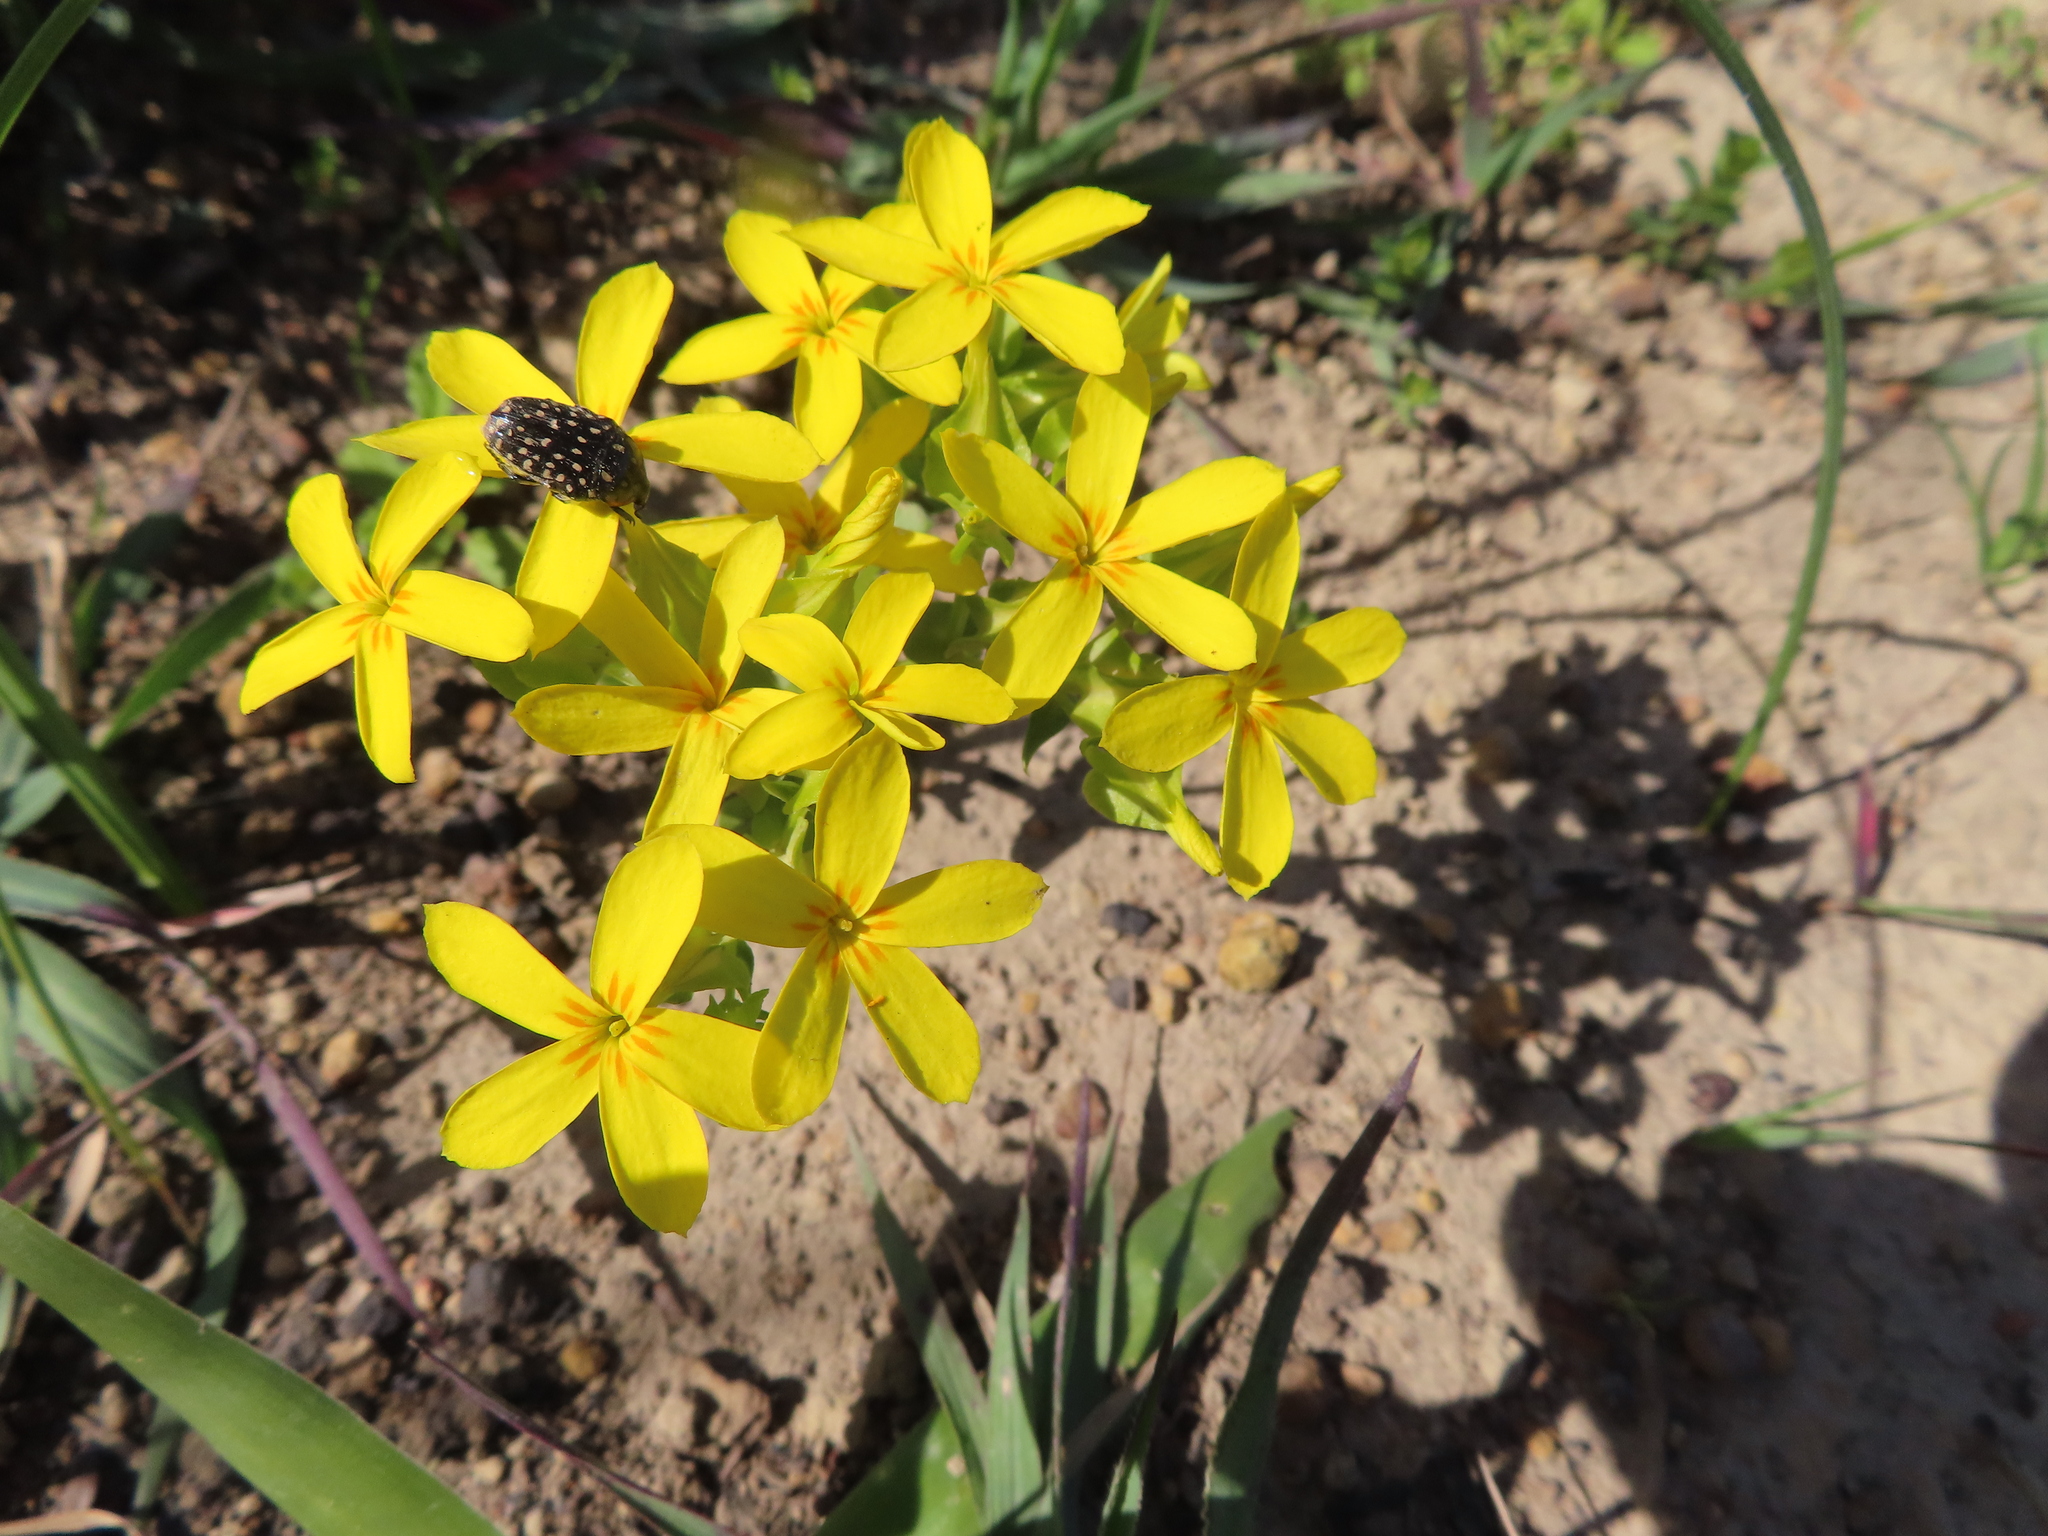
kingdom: Plantae
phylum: Tracheophyta
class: Magnoliopsida
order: Gentianales
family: Gentianaceae
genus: Sebaea
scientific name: Sebaea exacoides
